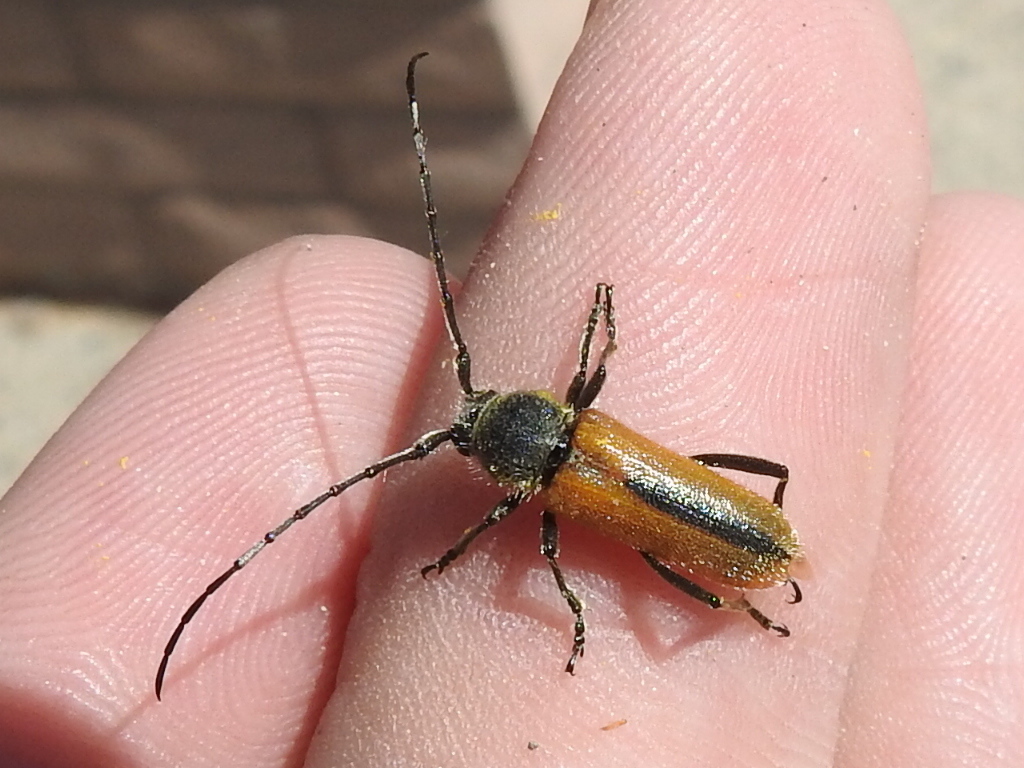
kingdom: Animalia
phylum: Arthropoda
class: Insecta
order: Coleoptera
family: Cerambycidae
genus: Crossidius
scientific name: Crossidius suturalis
